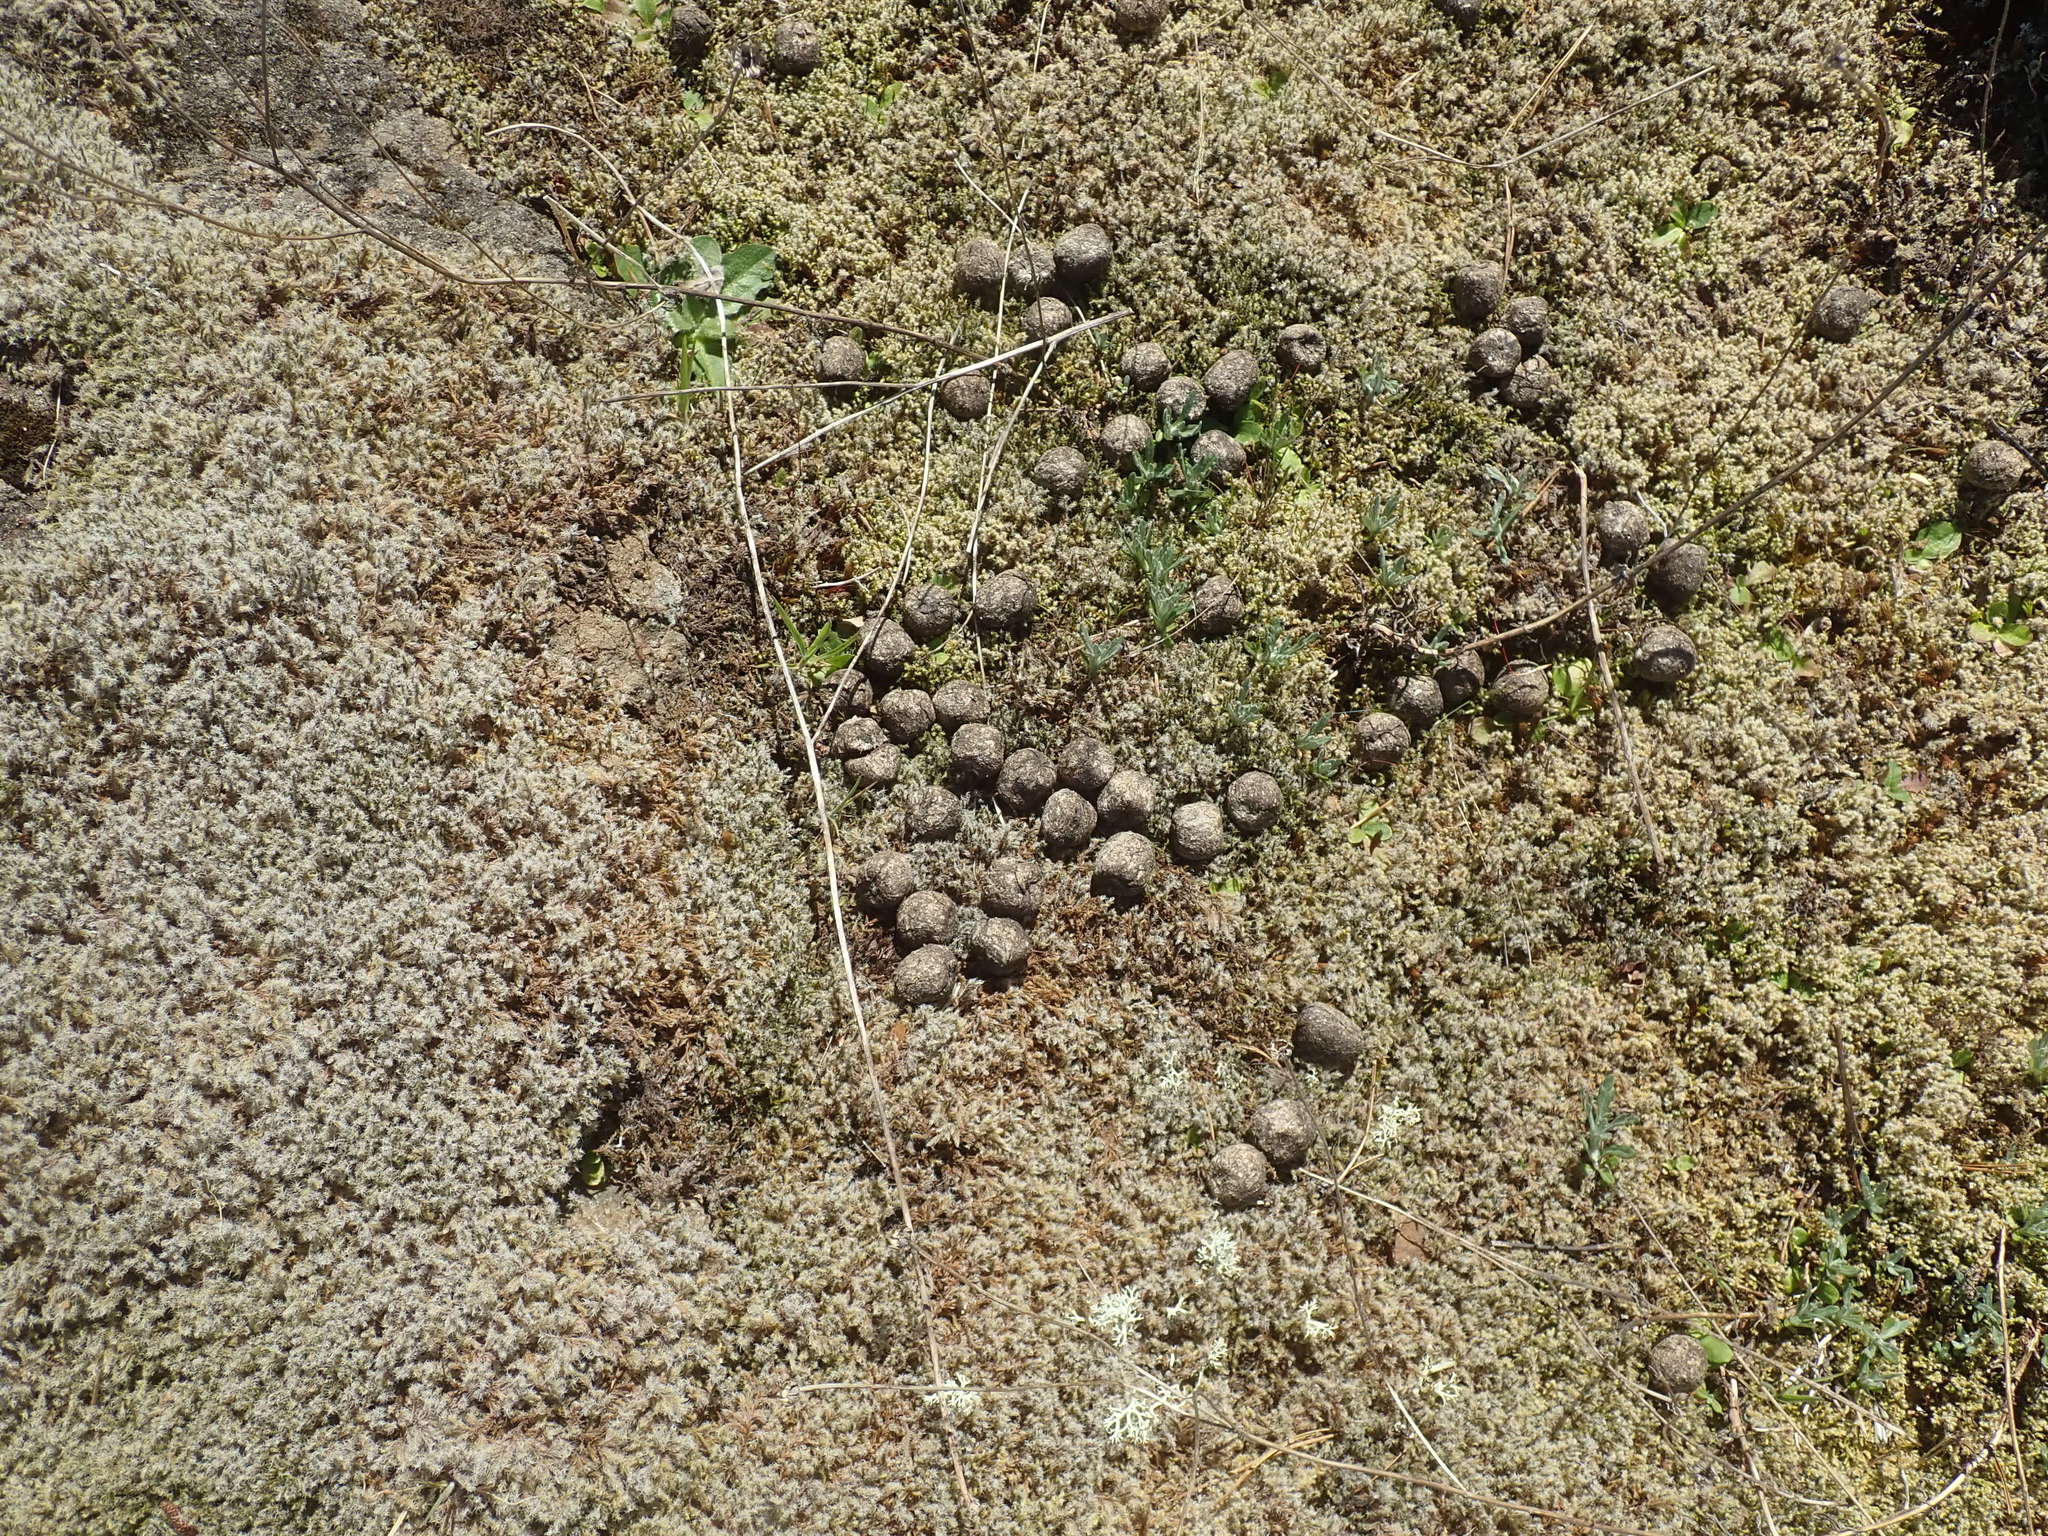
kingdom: Animalia
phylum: Chordata
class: Mammalia
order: Artiodactyla
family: Cervidae
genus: Cervus
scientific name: Cervus elaphus
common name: Red deer
